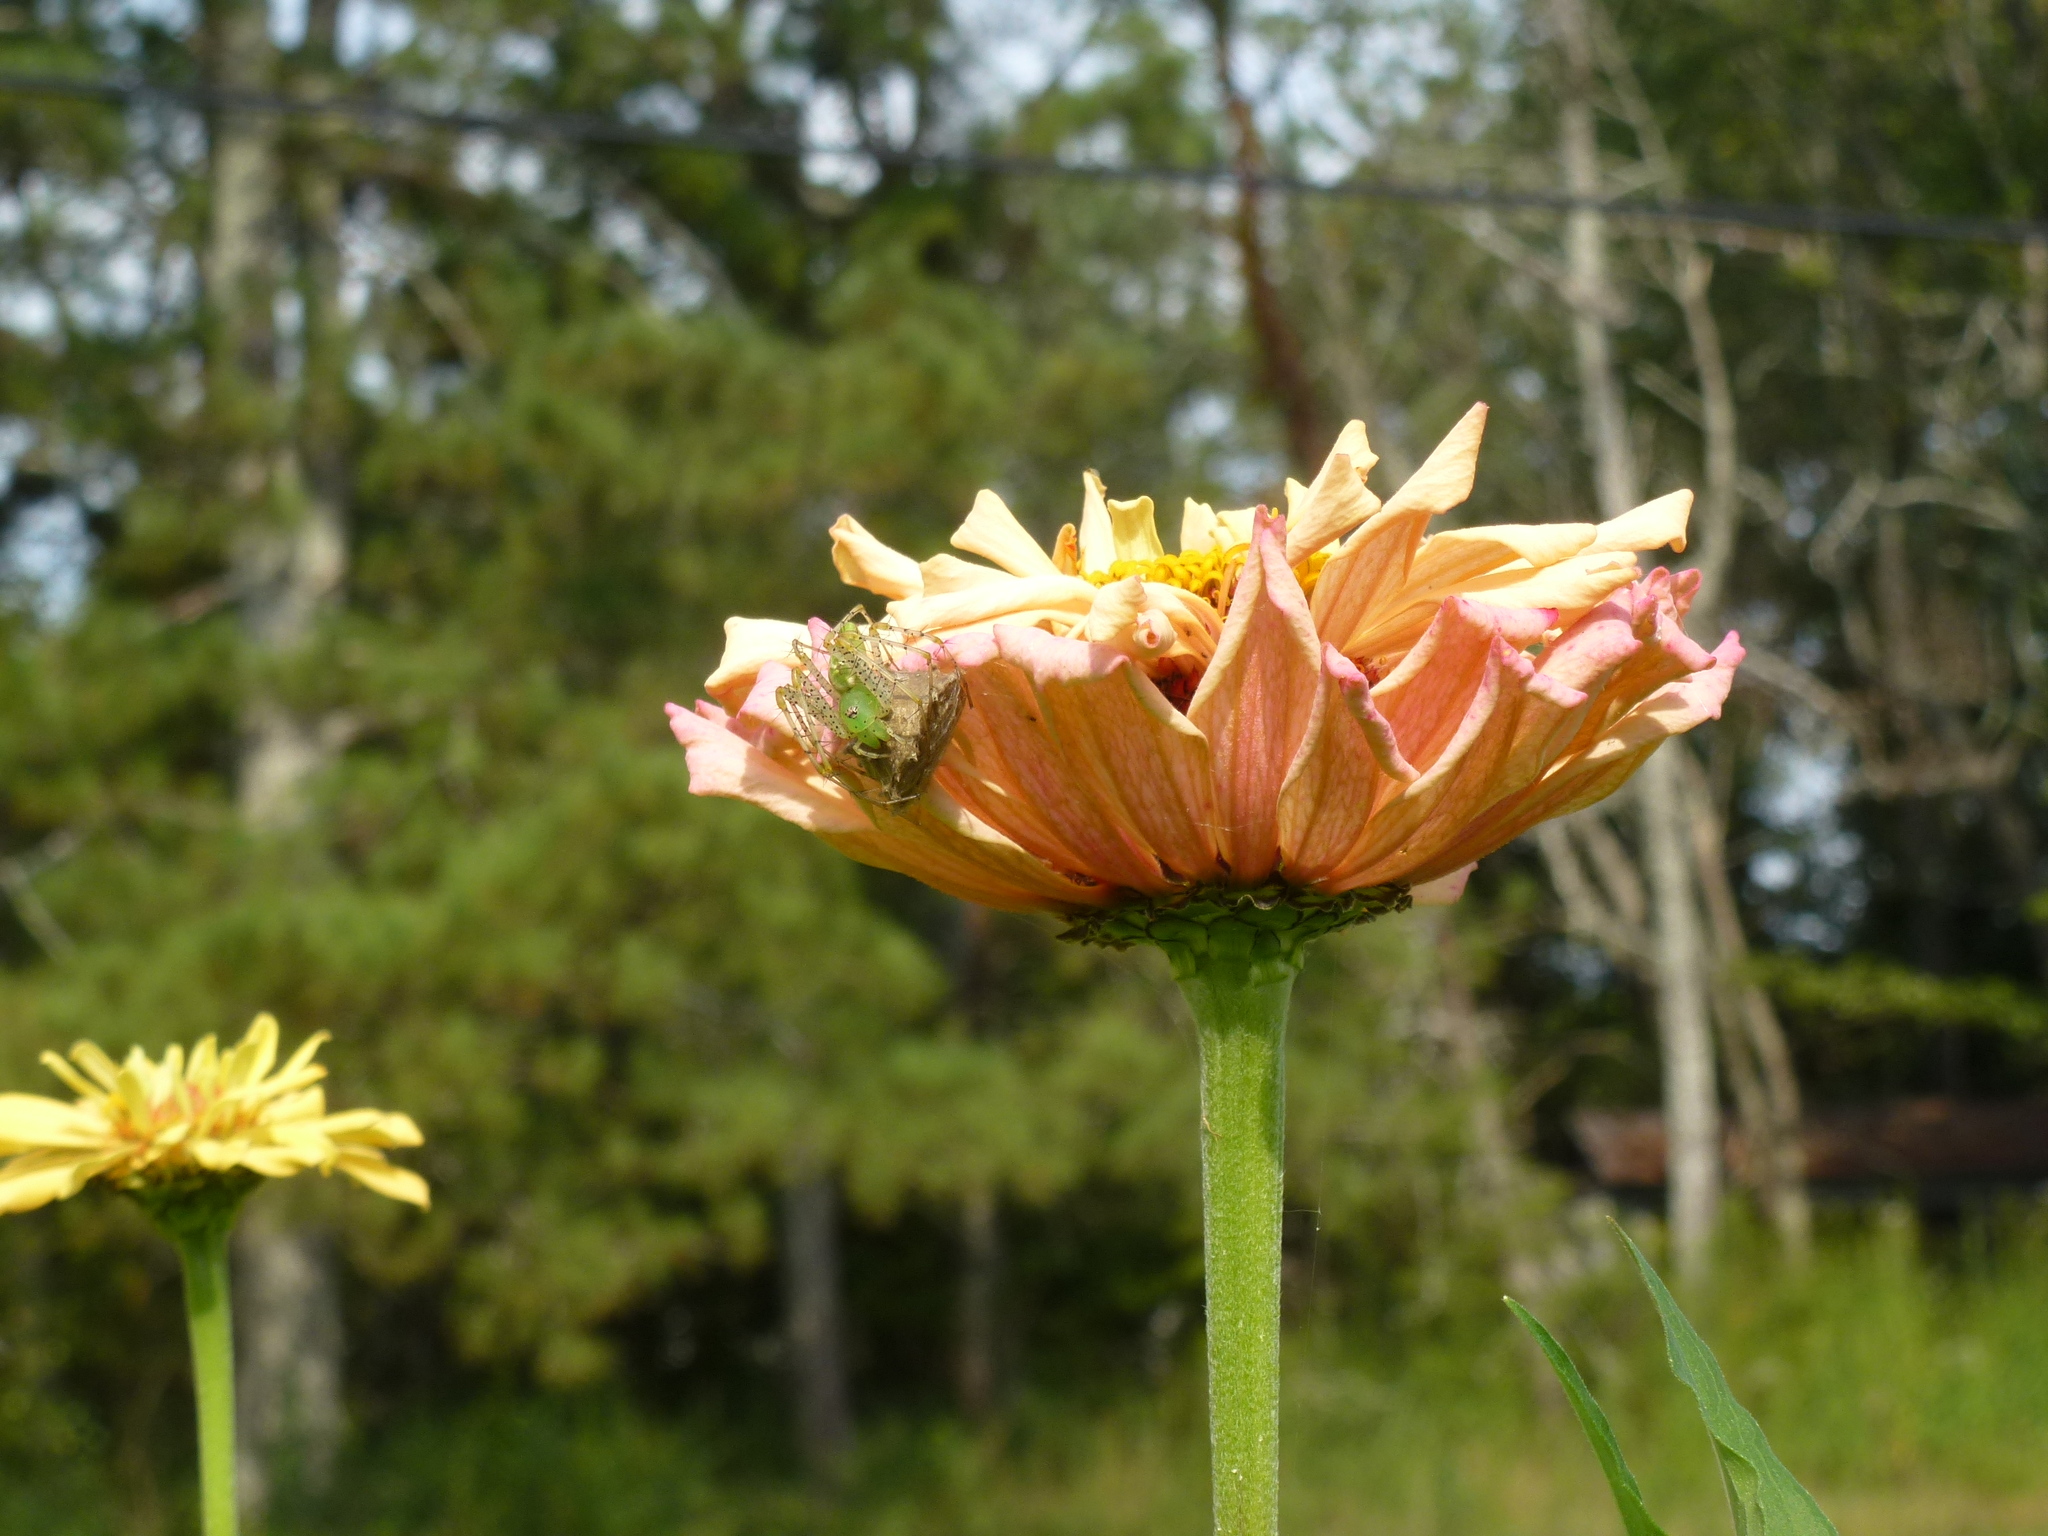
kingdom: Animalia
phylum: Arthropoda
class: Arachnida
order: Araneae
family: Oxyopidae
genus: Peucetia
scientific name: Peucetia viridans
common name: Lynx spiders
